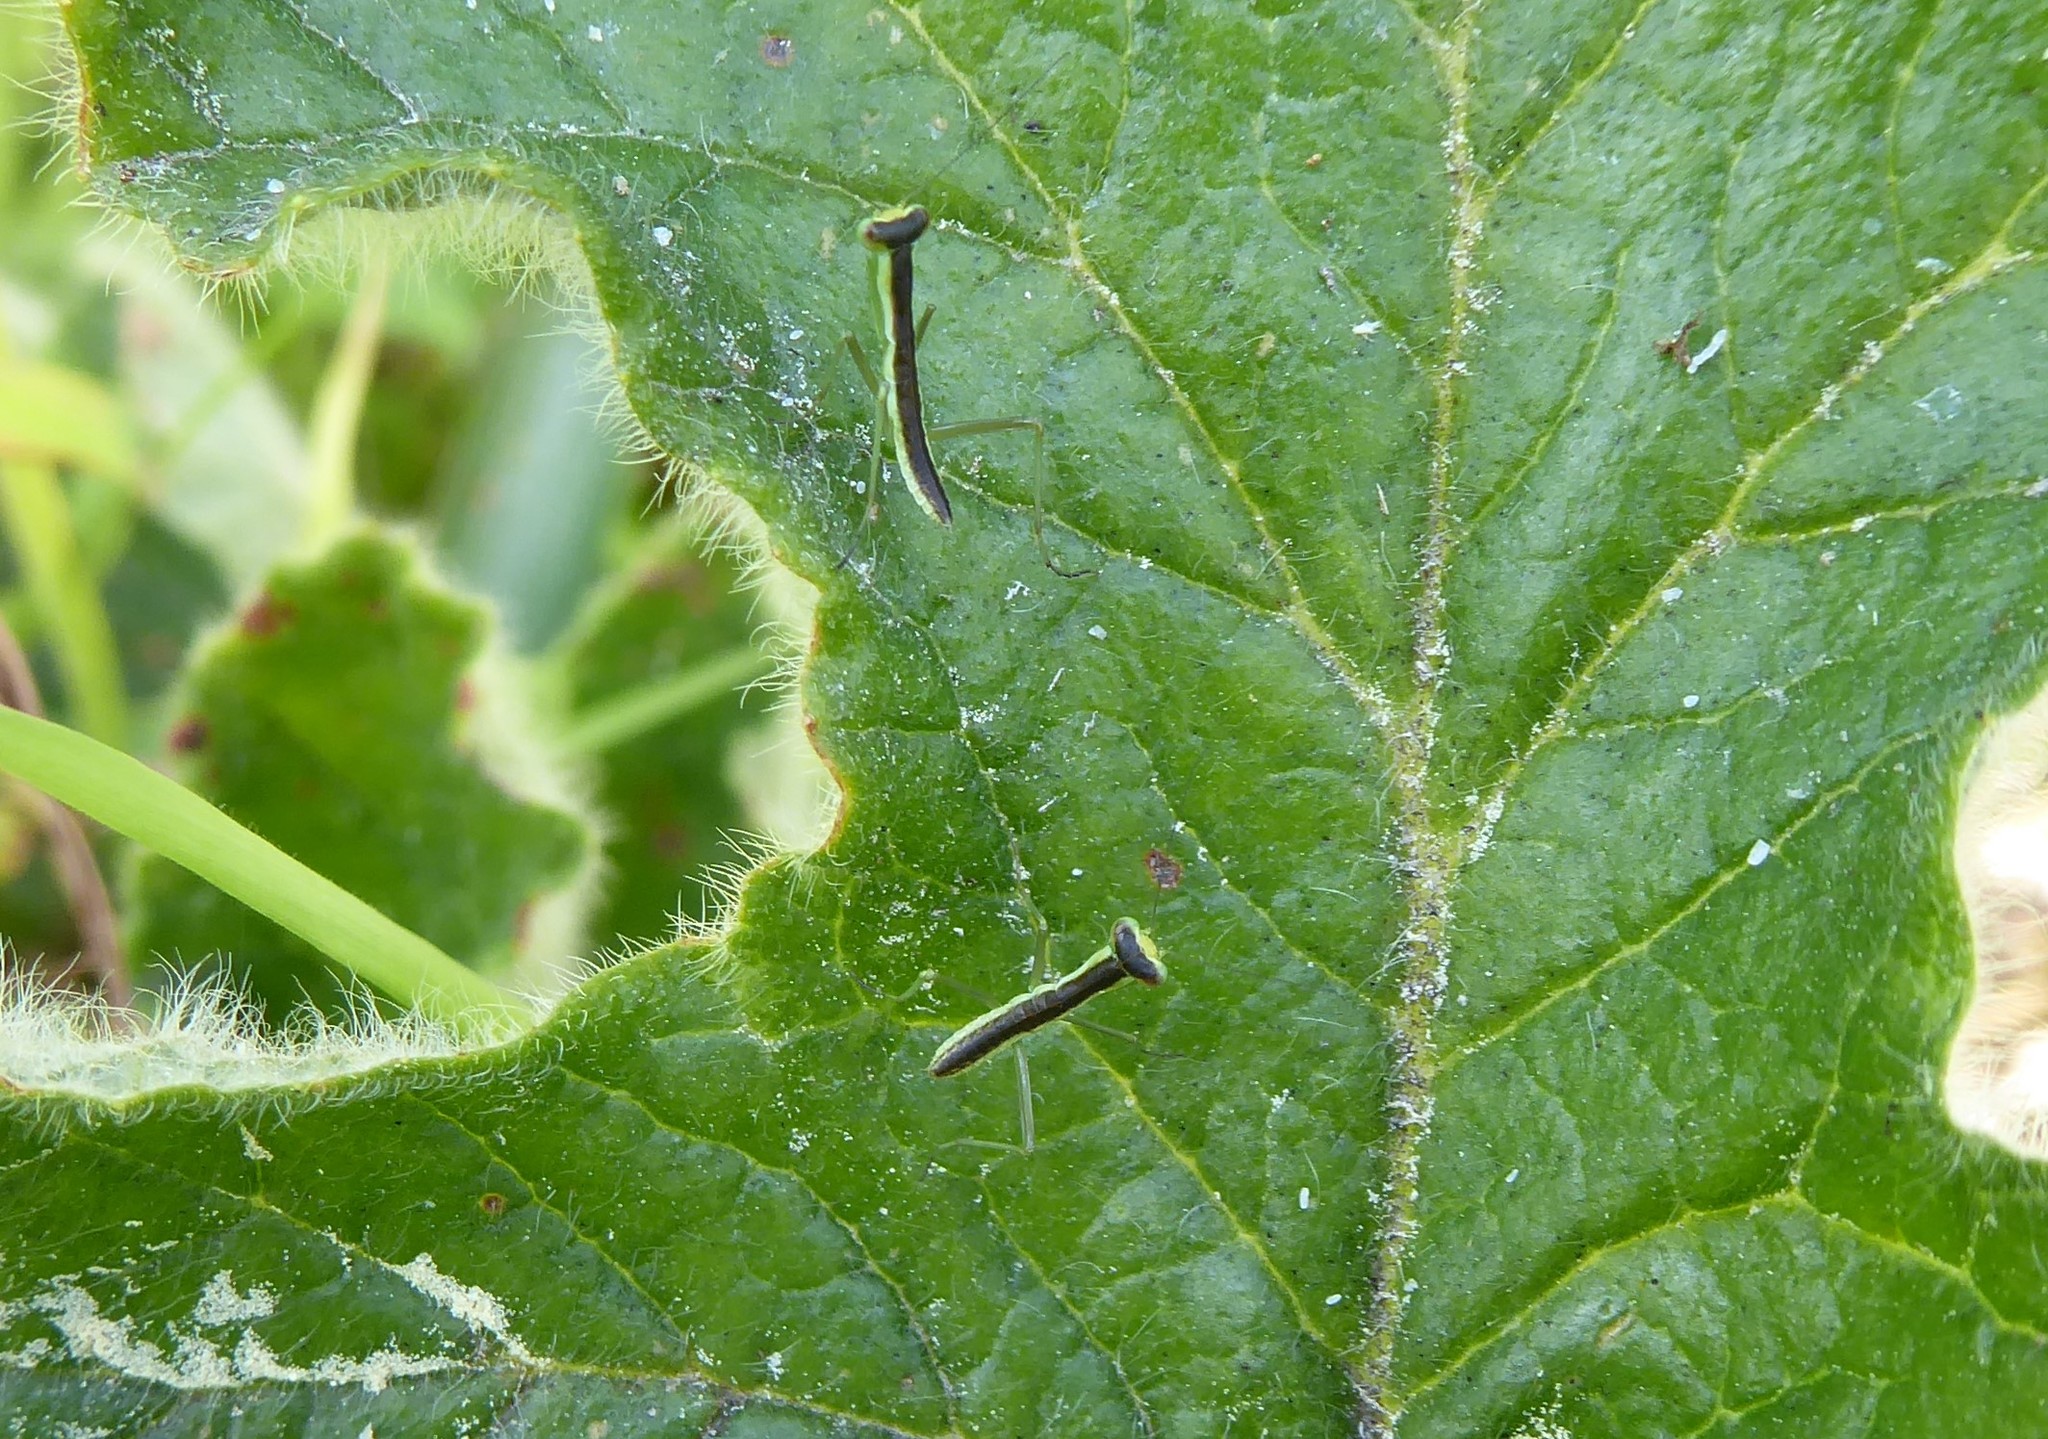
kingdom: Animalia
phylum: Arthropoda
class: Insecta
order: Mantodea
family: Mantidae
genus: Orthodera
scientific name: Orthodera novaezealandiae
